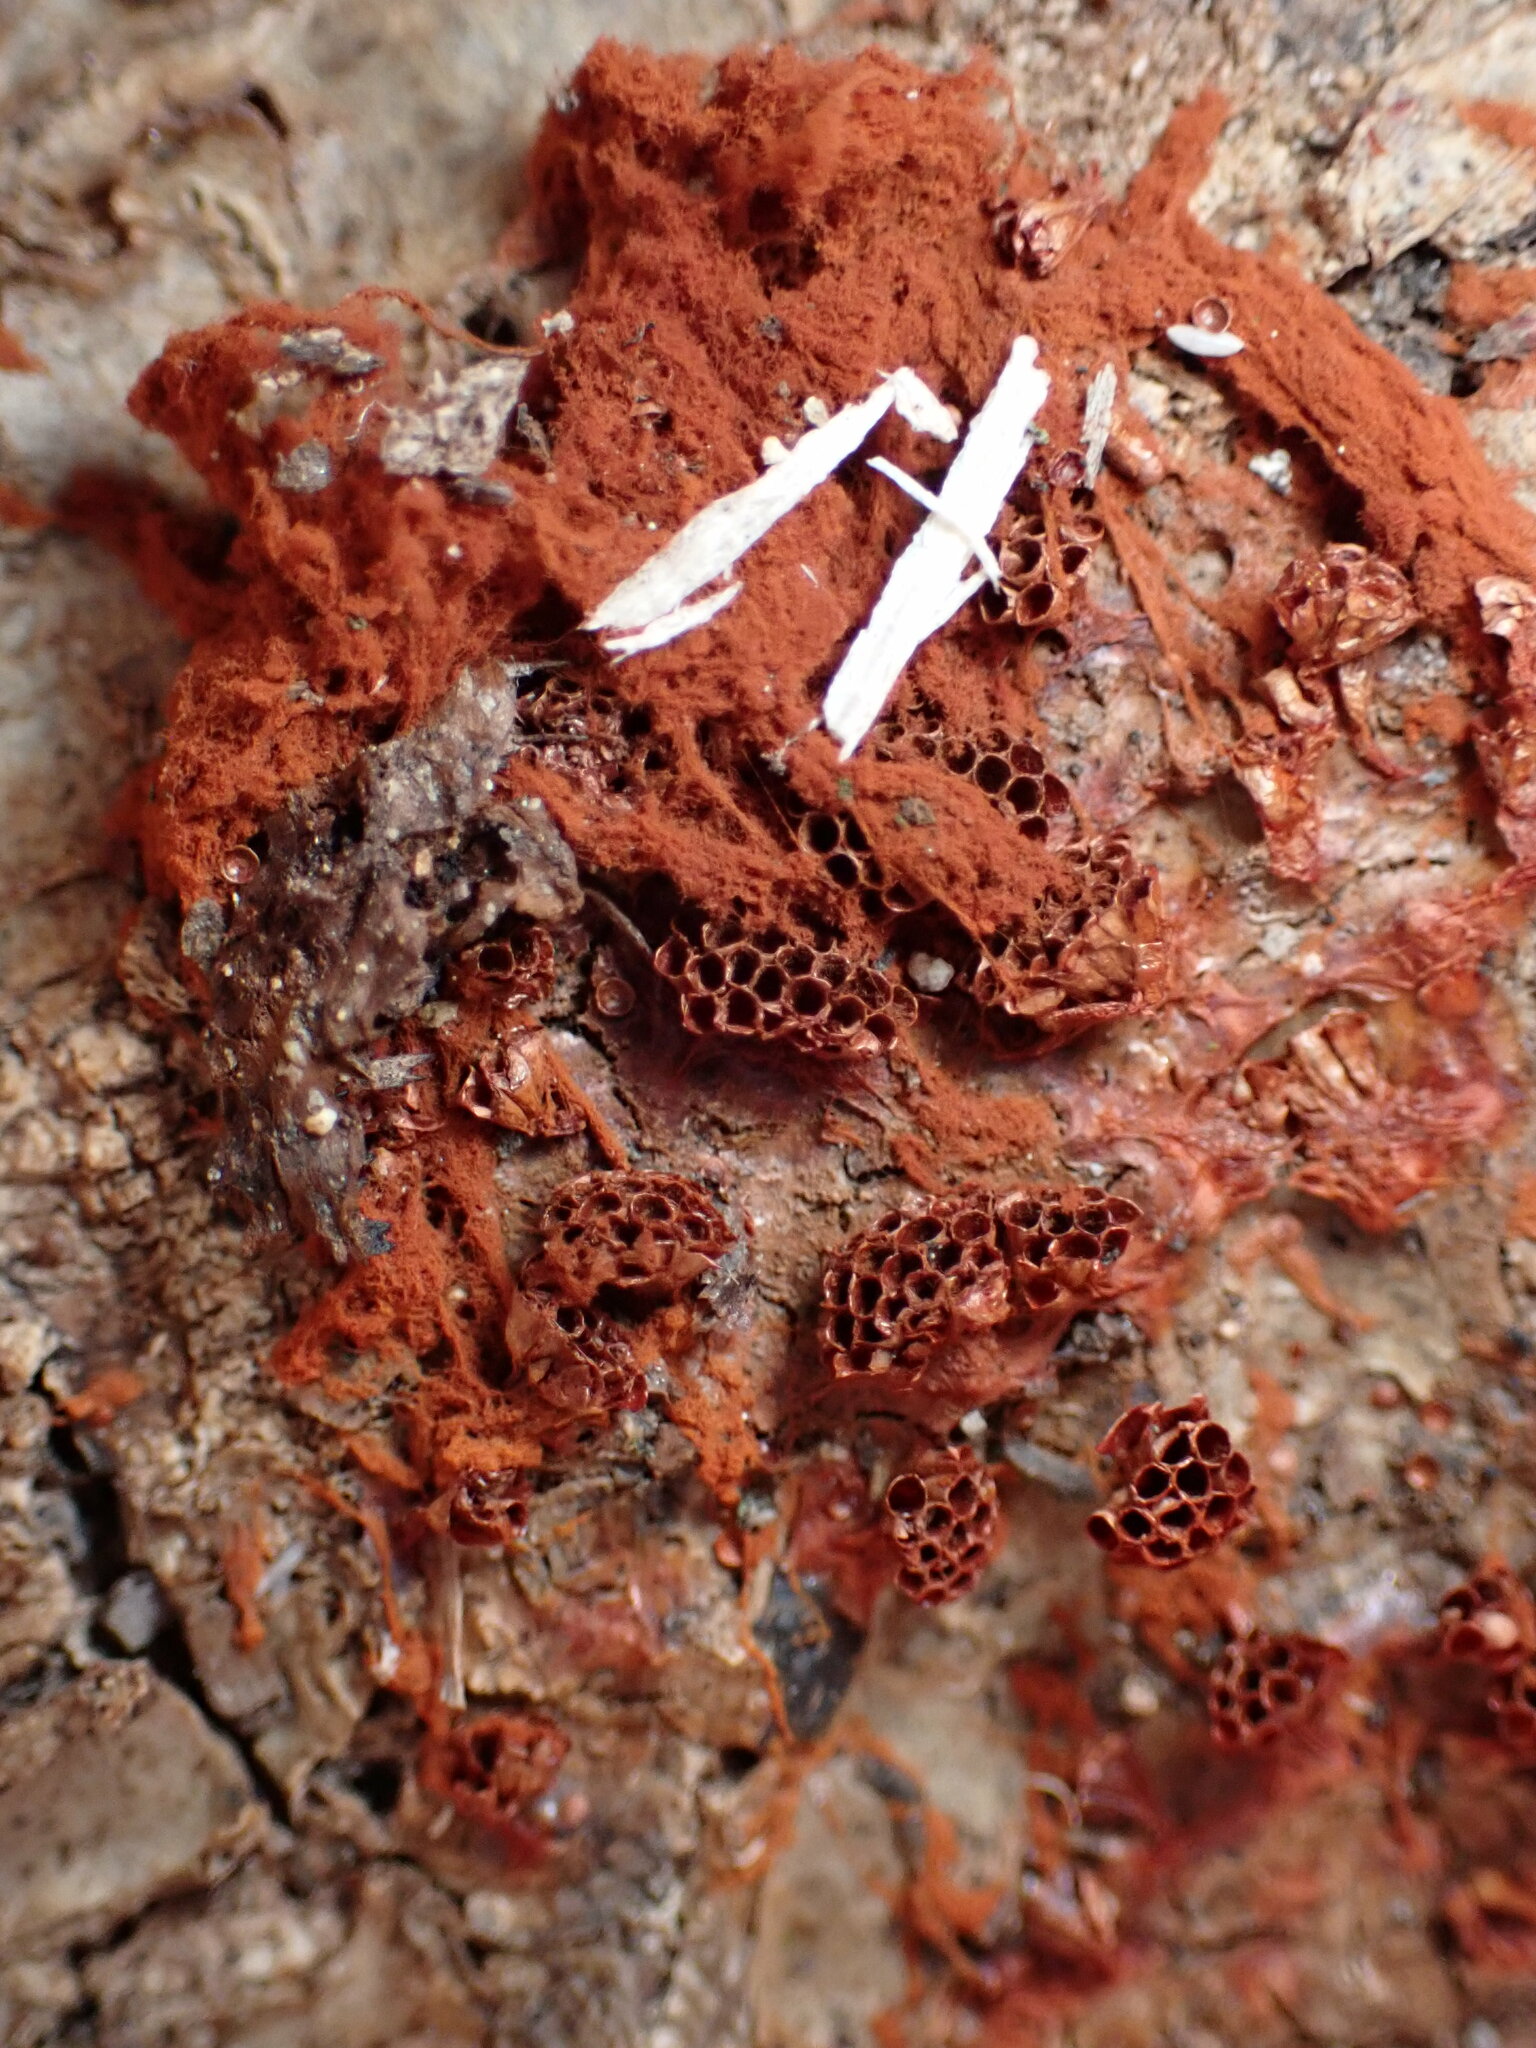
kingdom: Protozoa
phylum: Mycetozoa
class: Myxomycetes
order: Trichiales
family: Trichiaceae
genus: Metatrichia
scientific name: Metatrichia vesparia
